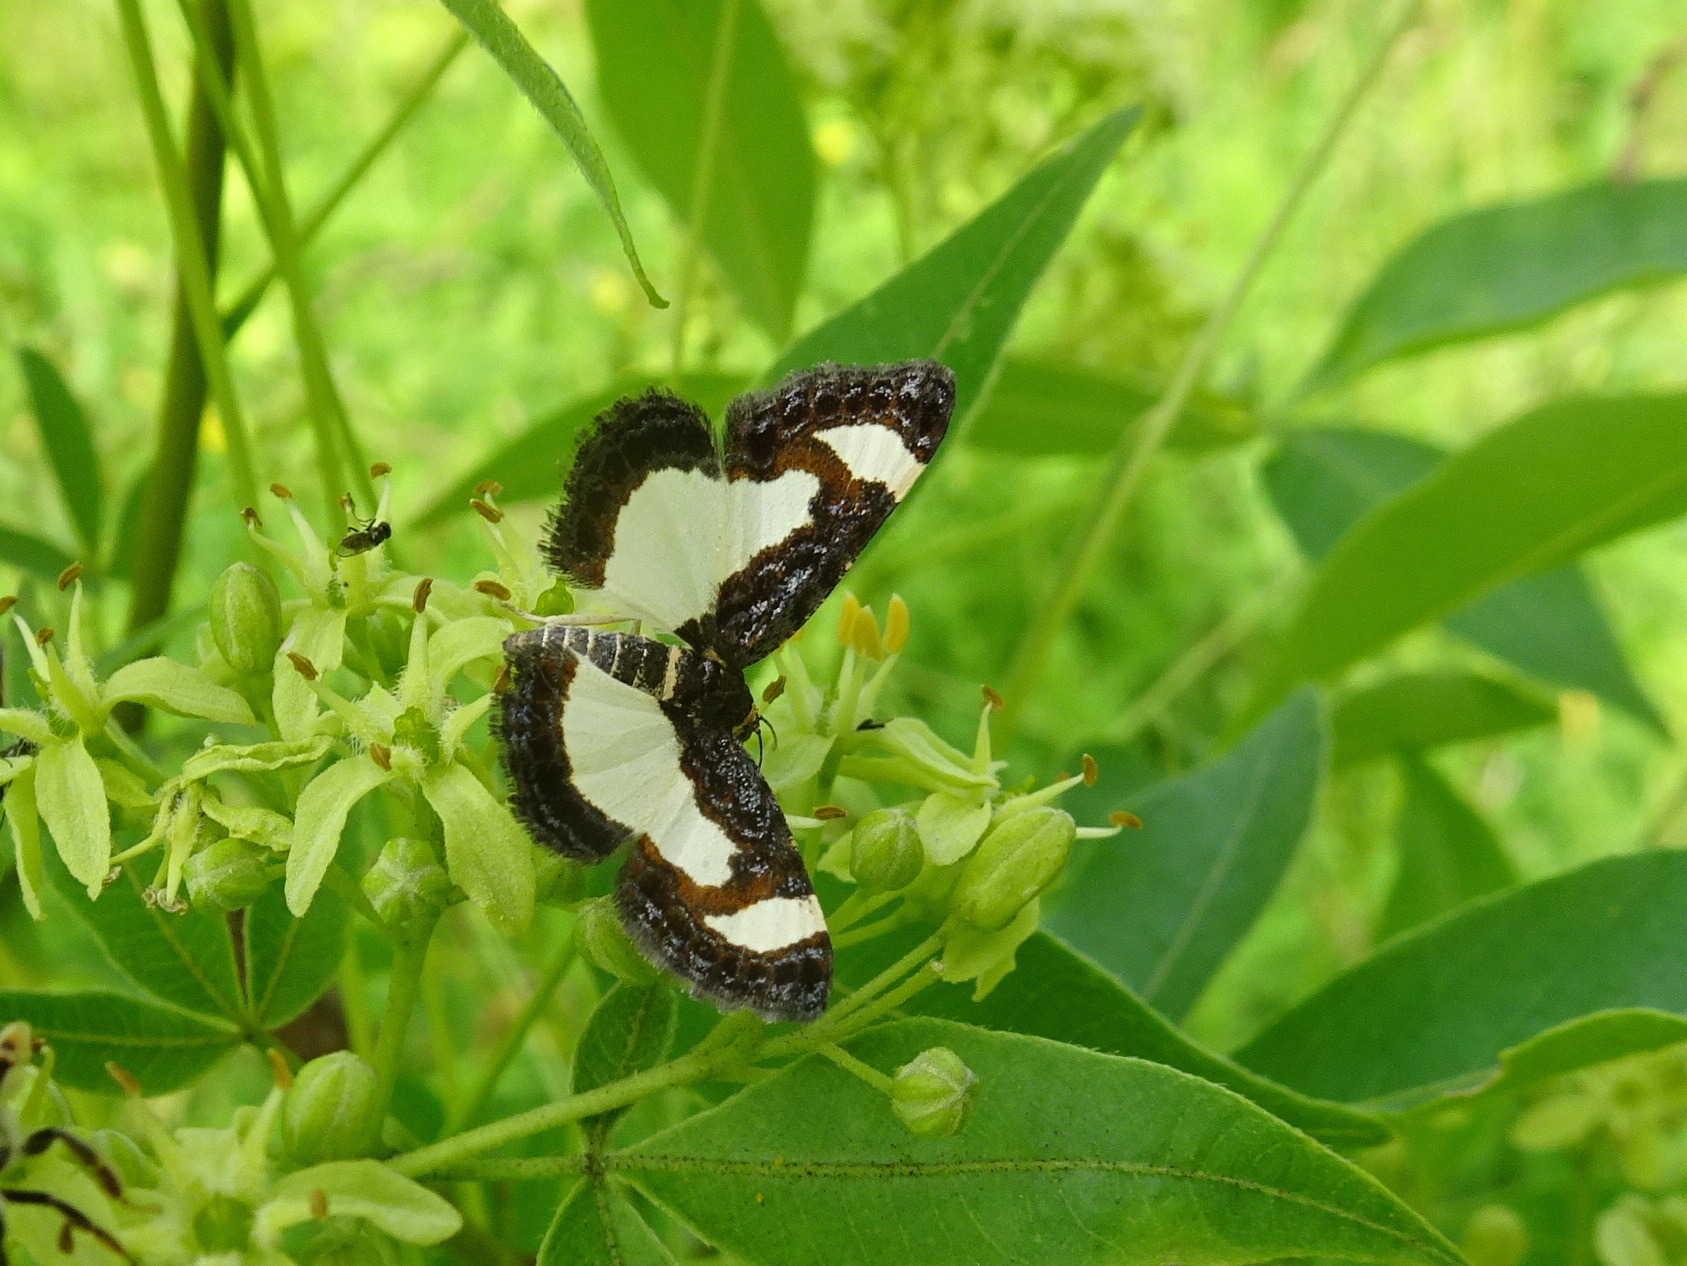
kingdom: Animalia
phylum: Arthropoda
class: Insecta
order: Lepidoptera
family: Geometridae
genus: Heliomata
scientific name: Heliomata cycladata
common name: Common spring moth
